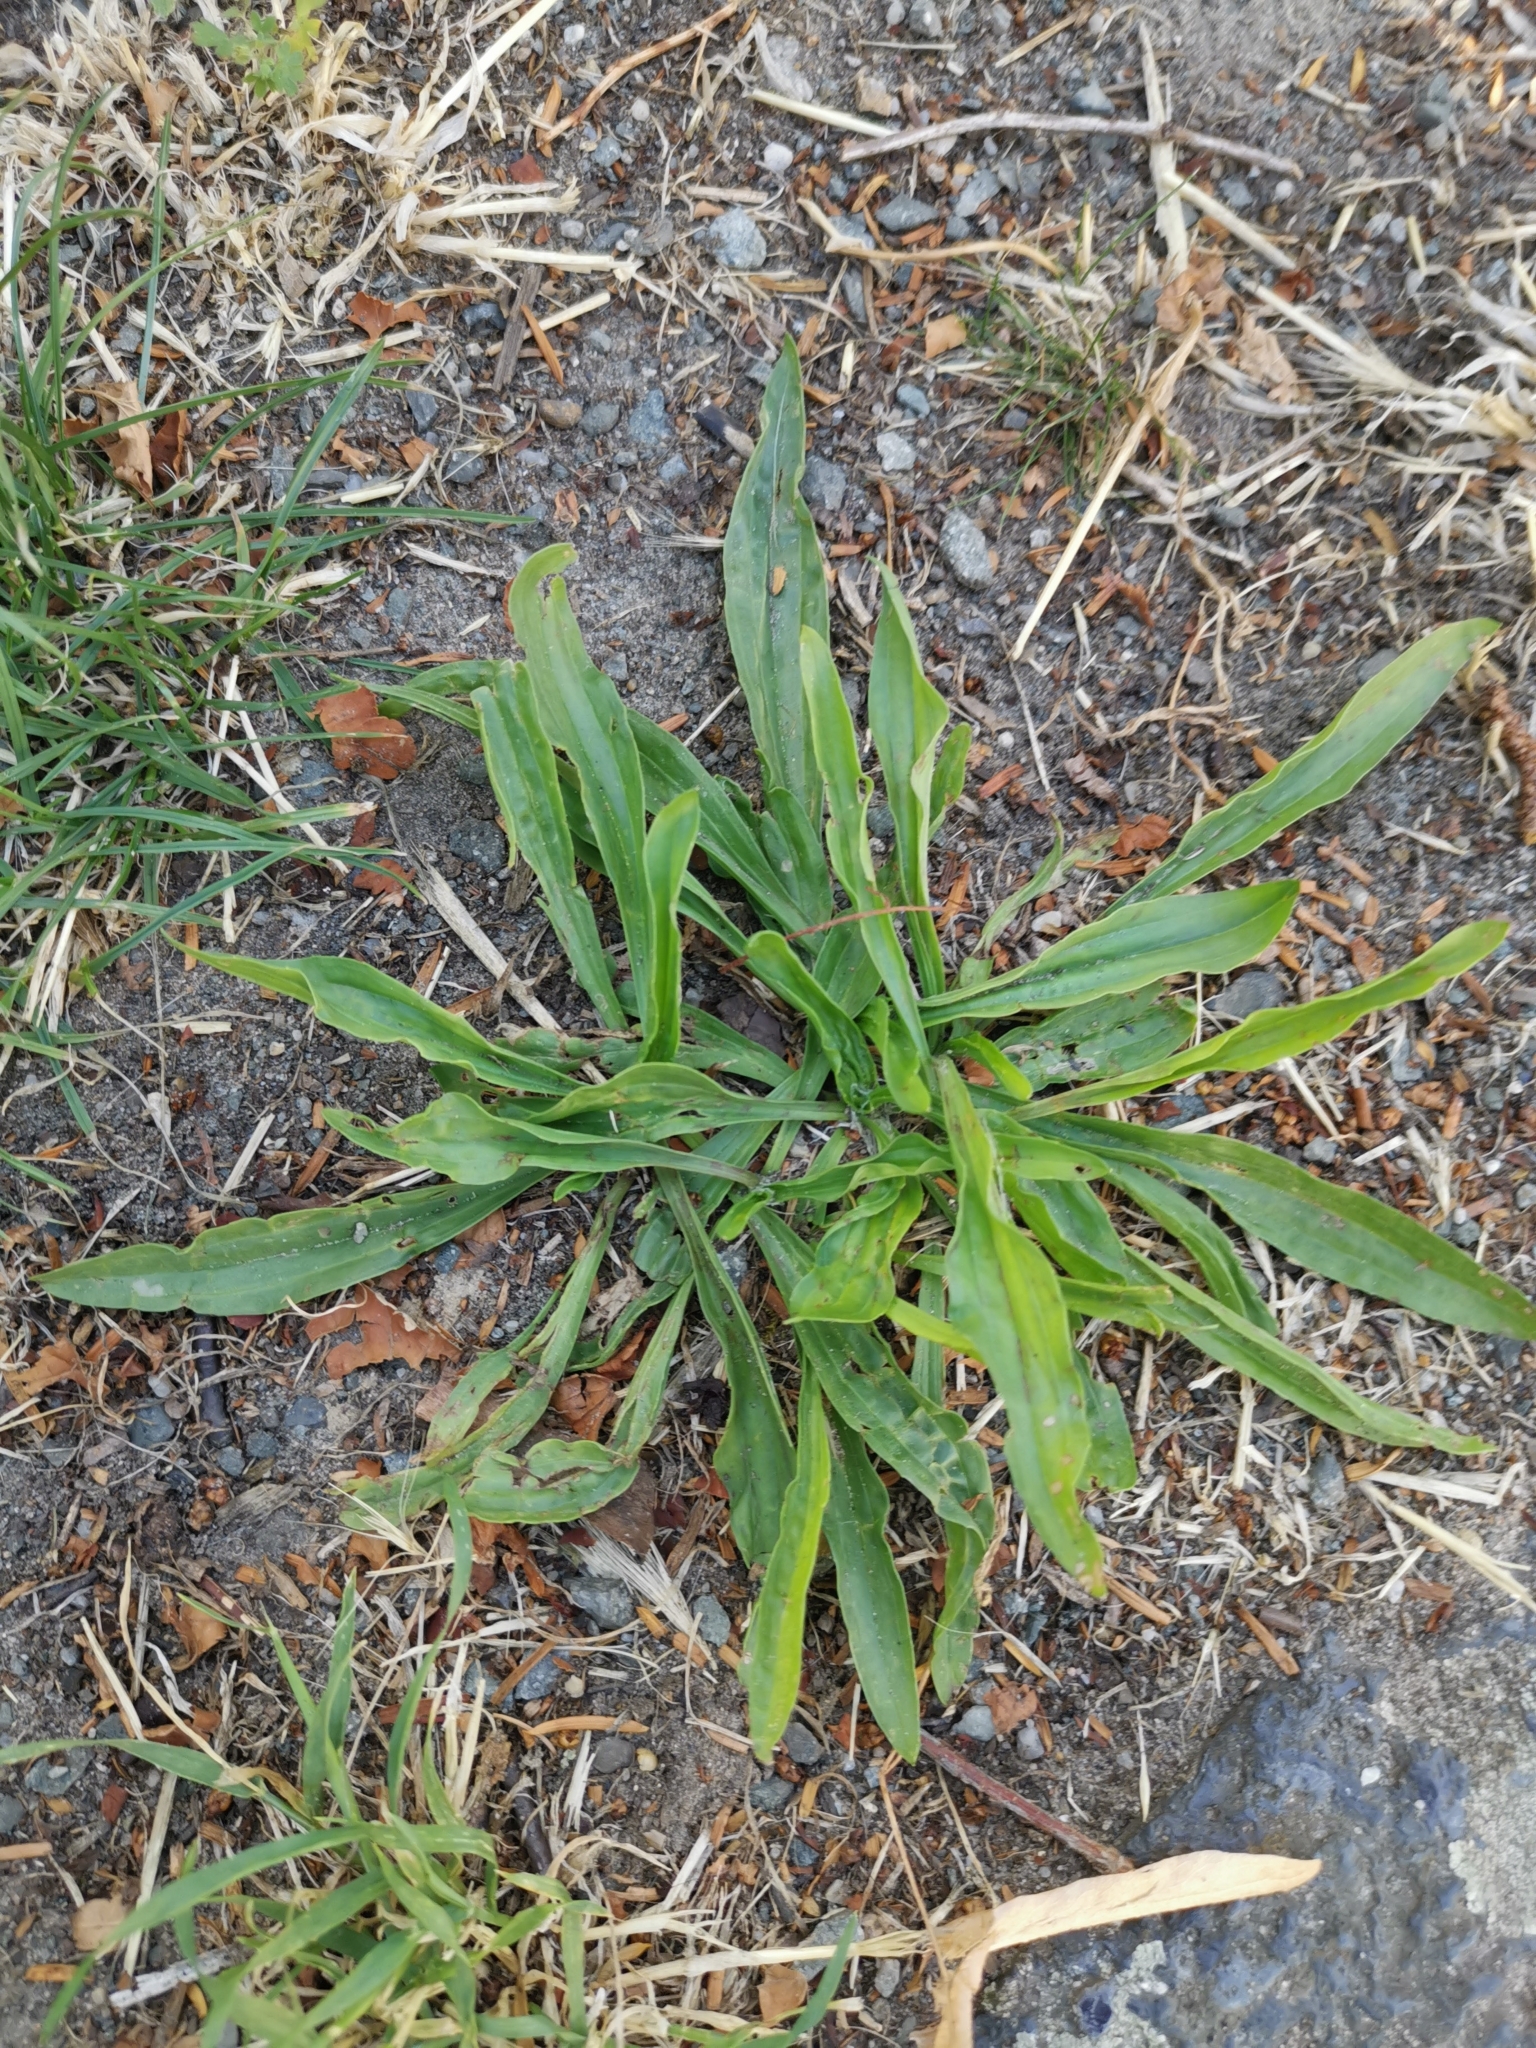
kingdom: Plantae
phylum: Tracheophyta
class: Magnoliopsida
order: Lamiales
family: Plantaginaceae
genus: Plantago
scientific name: Plantago lanceolata
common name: Ribwort plantain
